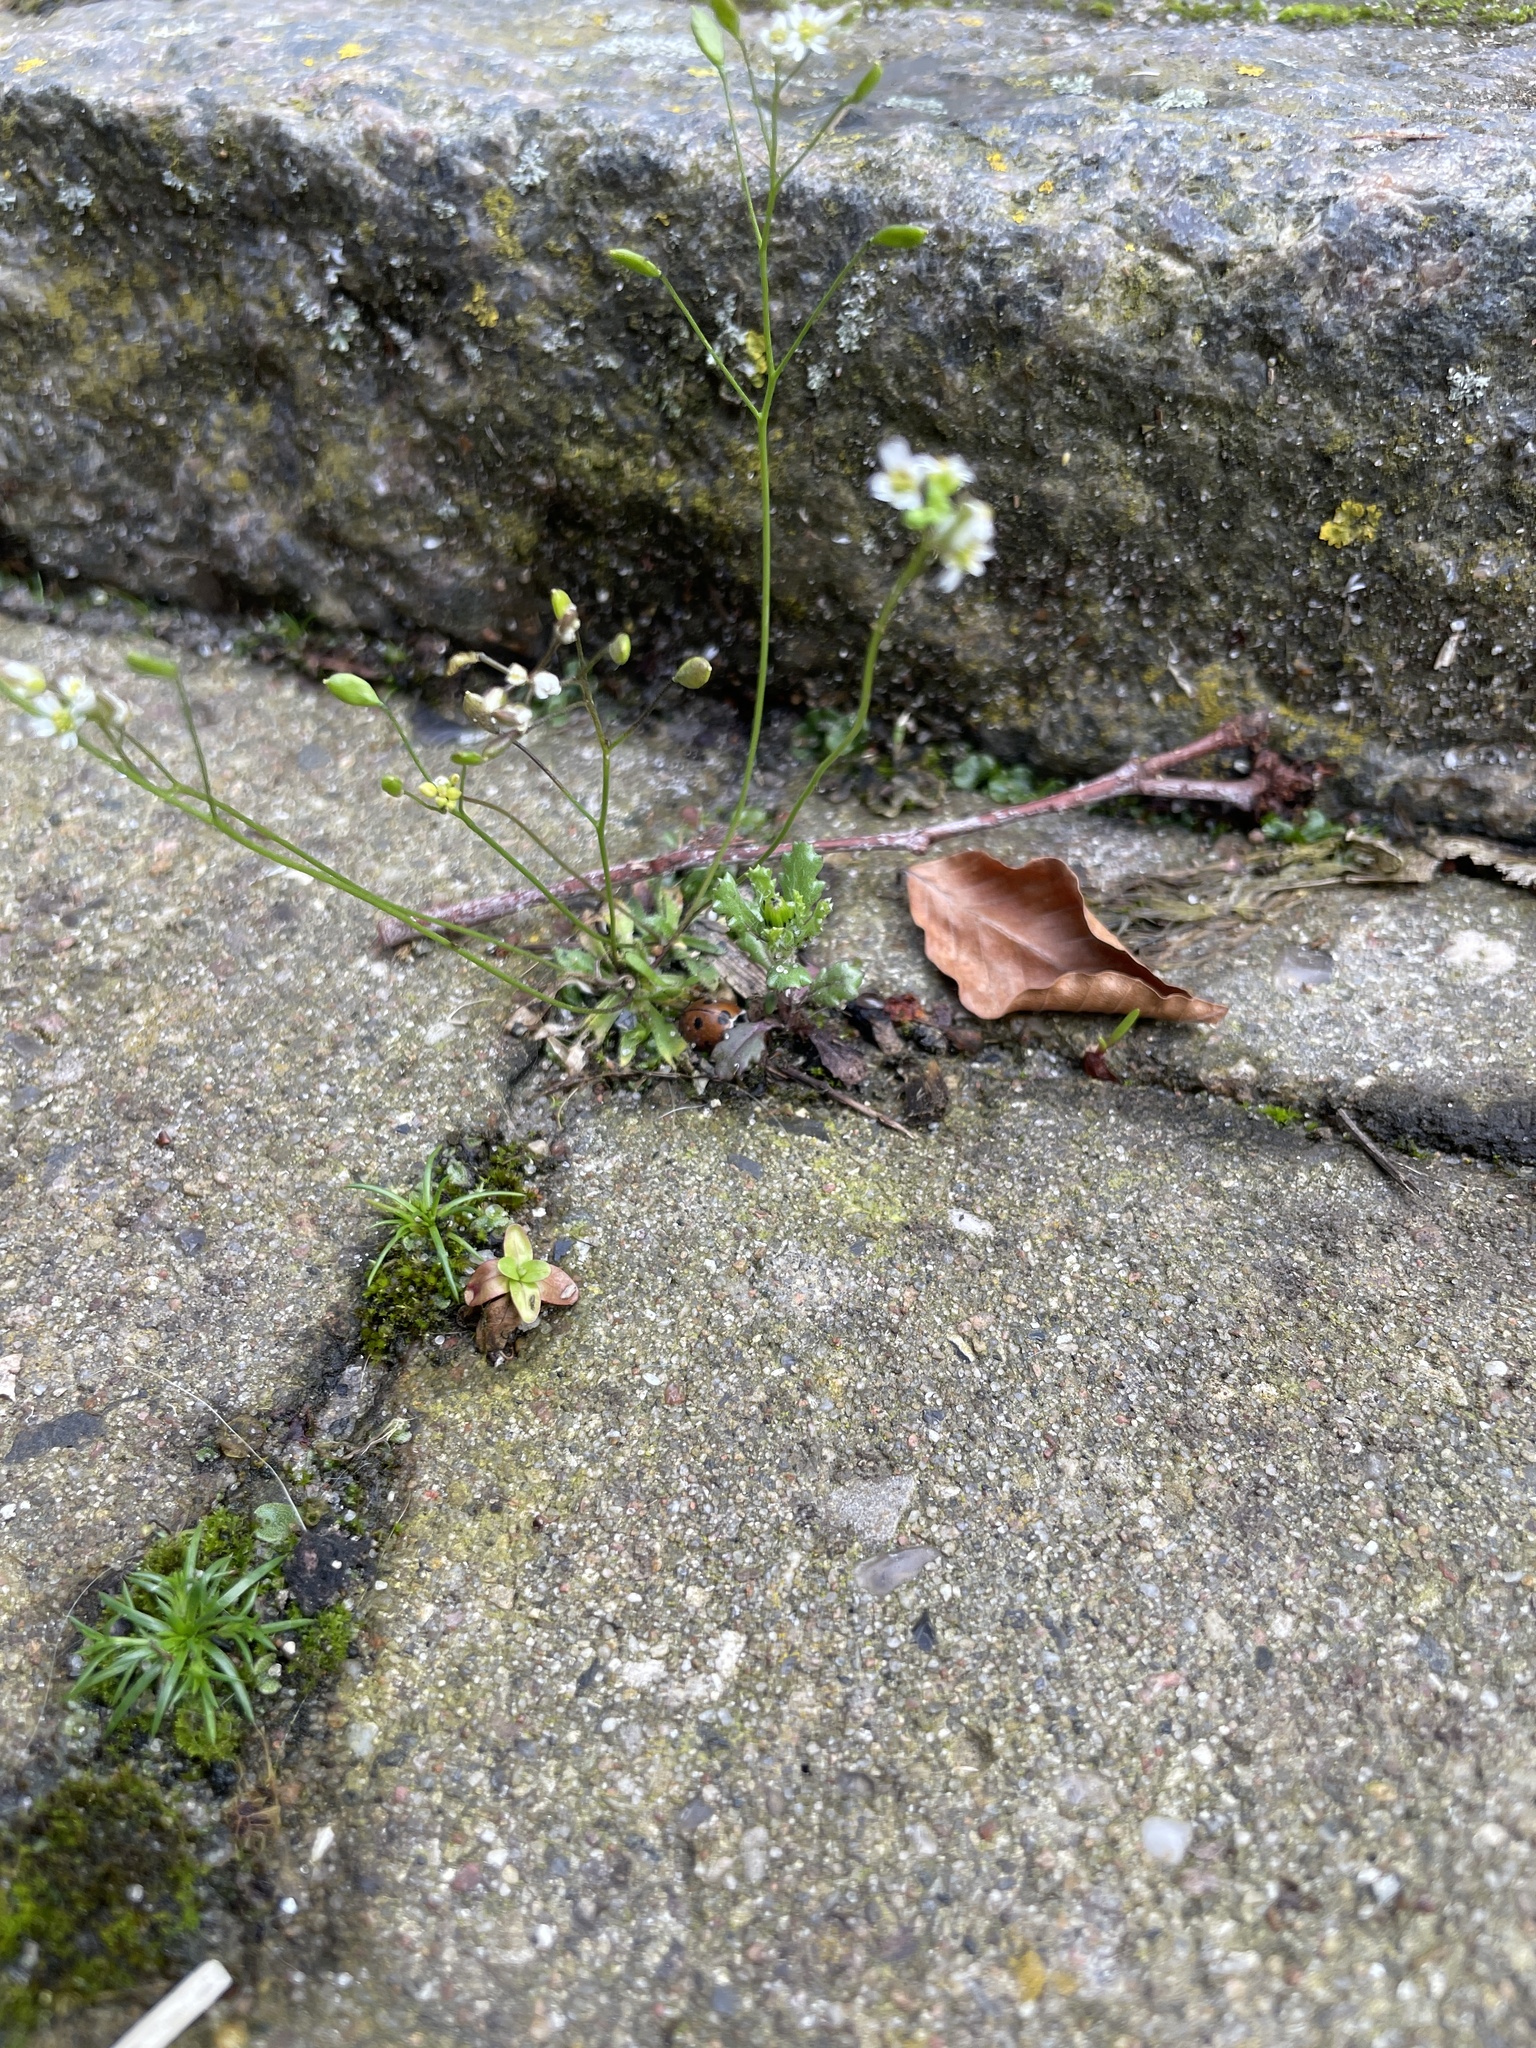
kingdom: Plantae
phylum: Tracheophyta
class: Magnoliopsida
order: Brassicales
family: Brassicaceae
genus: Draba
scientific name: Draba verna
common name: Spring draba
